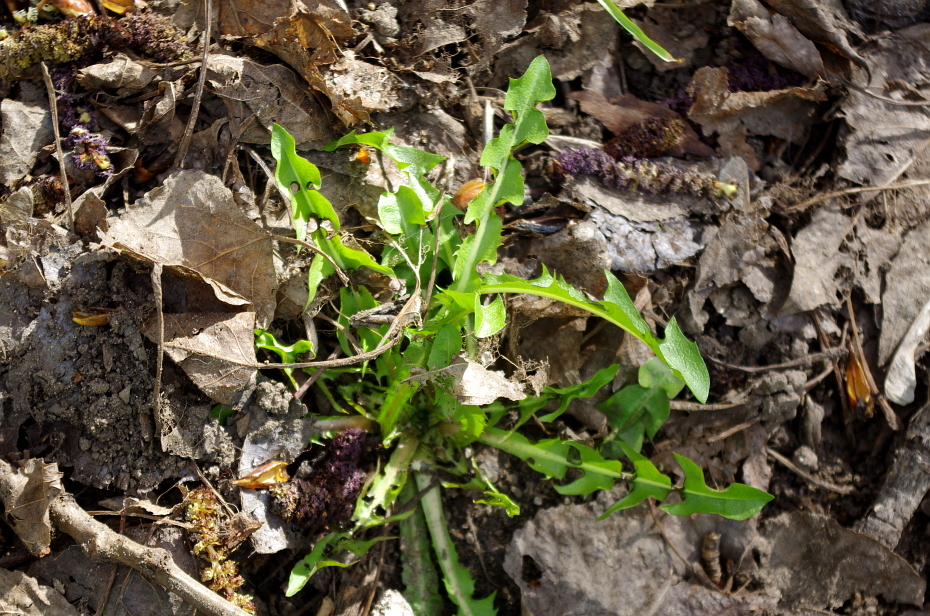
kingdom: Plantae
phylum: Tracheophyta
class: Magnoliopsida
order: Asterales
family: Asteraceae
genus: Taraxacum
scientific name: Taraxacum officinale
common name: Common dandelion
